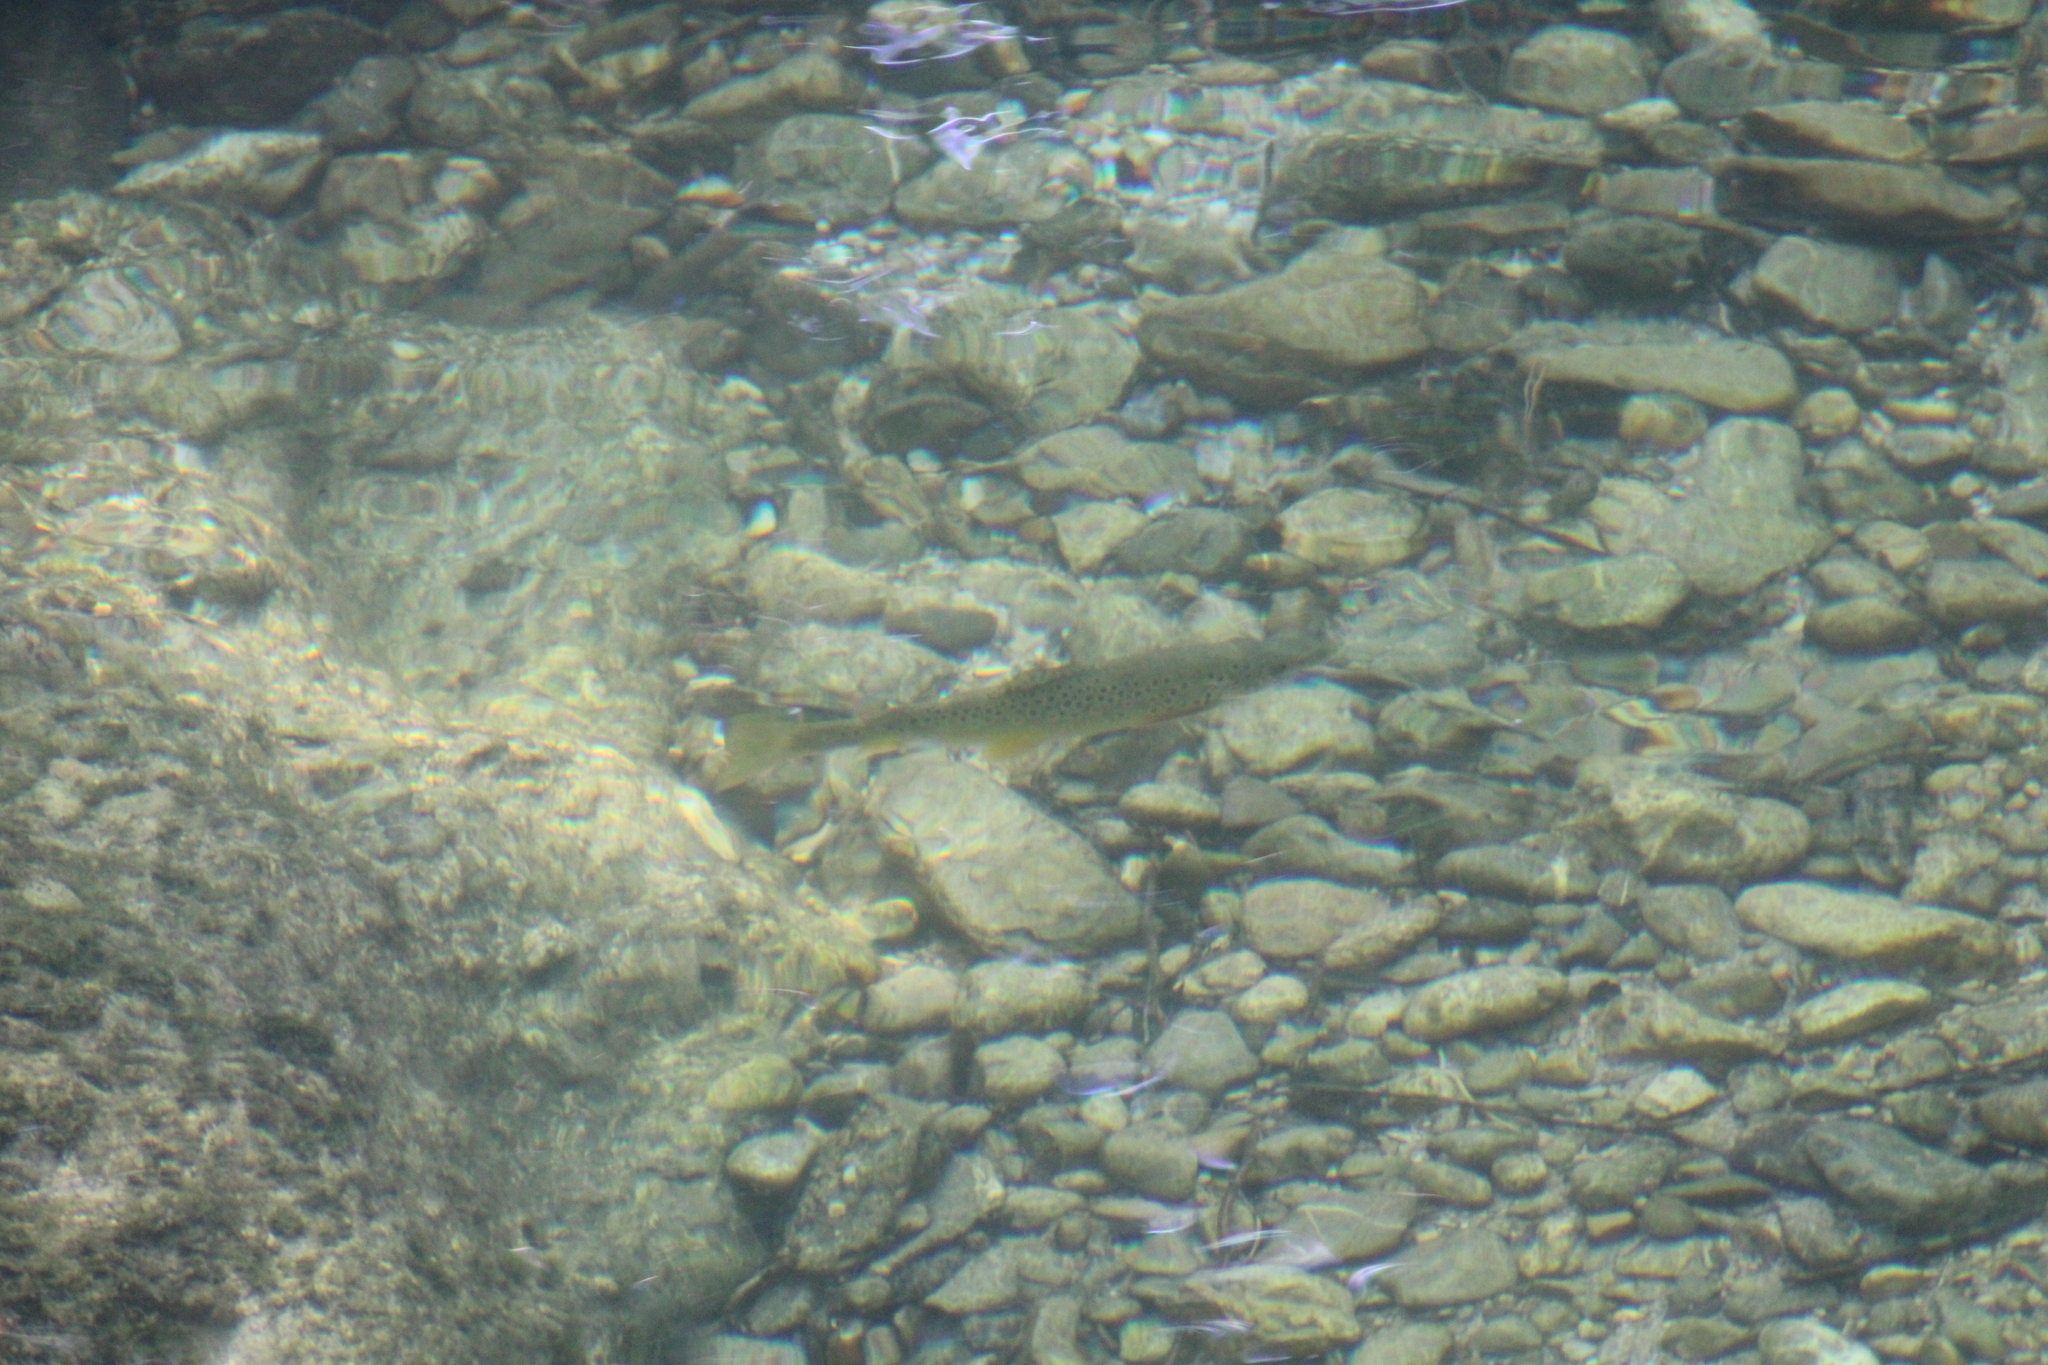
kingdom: Animalia
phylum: Chordata
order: Salmoniformes
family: Salmonidae
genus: Salmo
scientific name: Salmo trutta
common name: Brown trout
